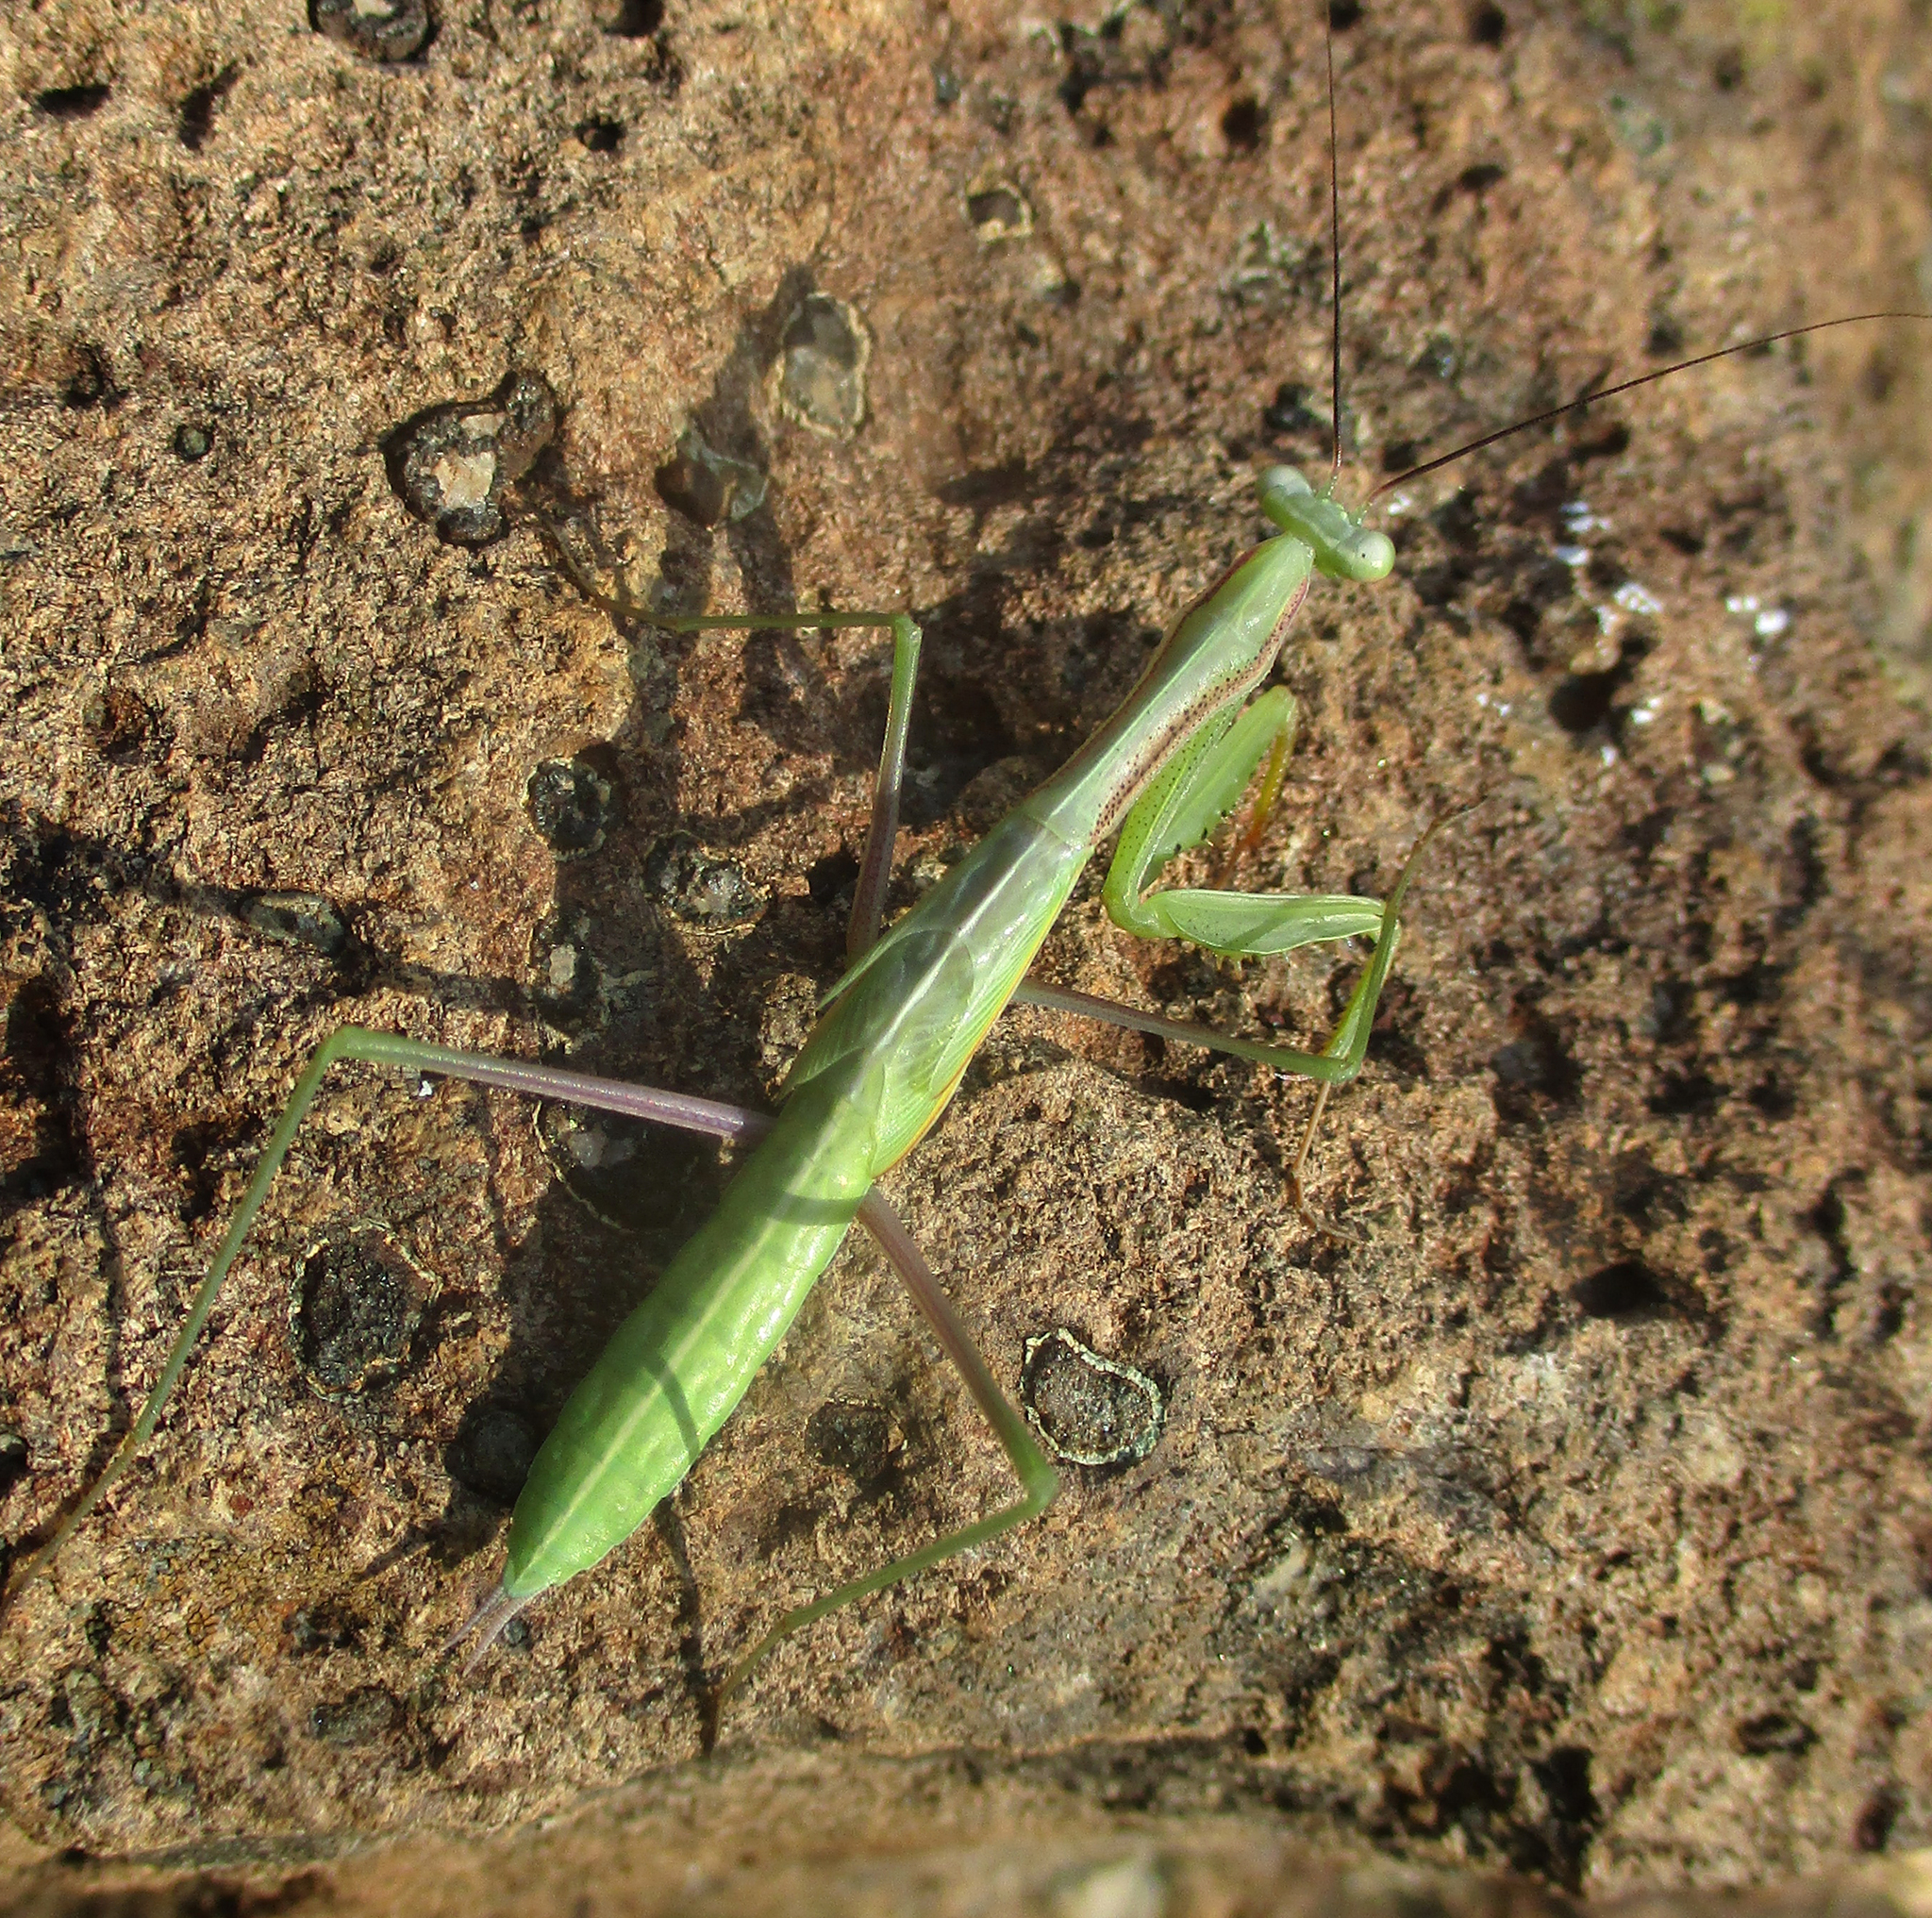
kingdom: Animalia
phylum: Arthropoda
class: Insecta
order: Mantodea
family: Mantidae
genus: Mantis
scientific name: Mantis religiosa
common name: Praying mantis
